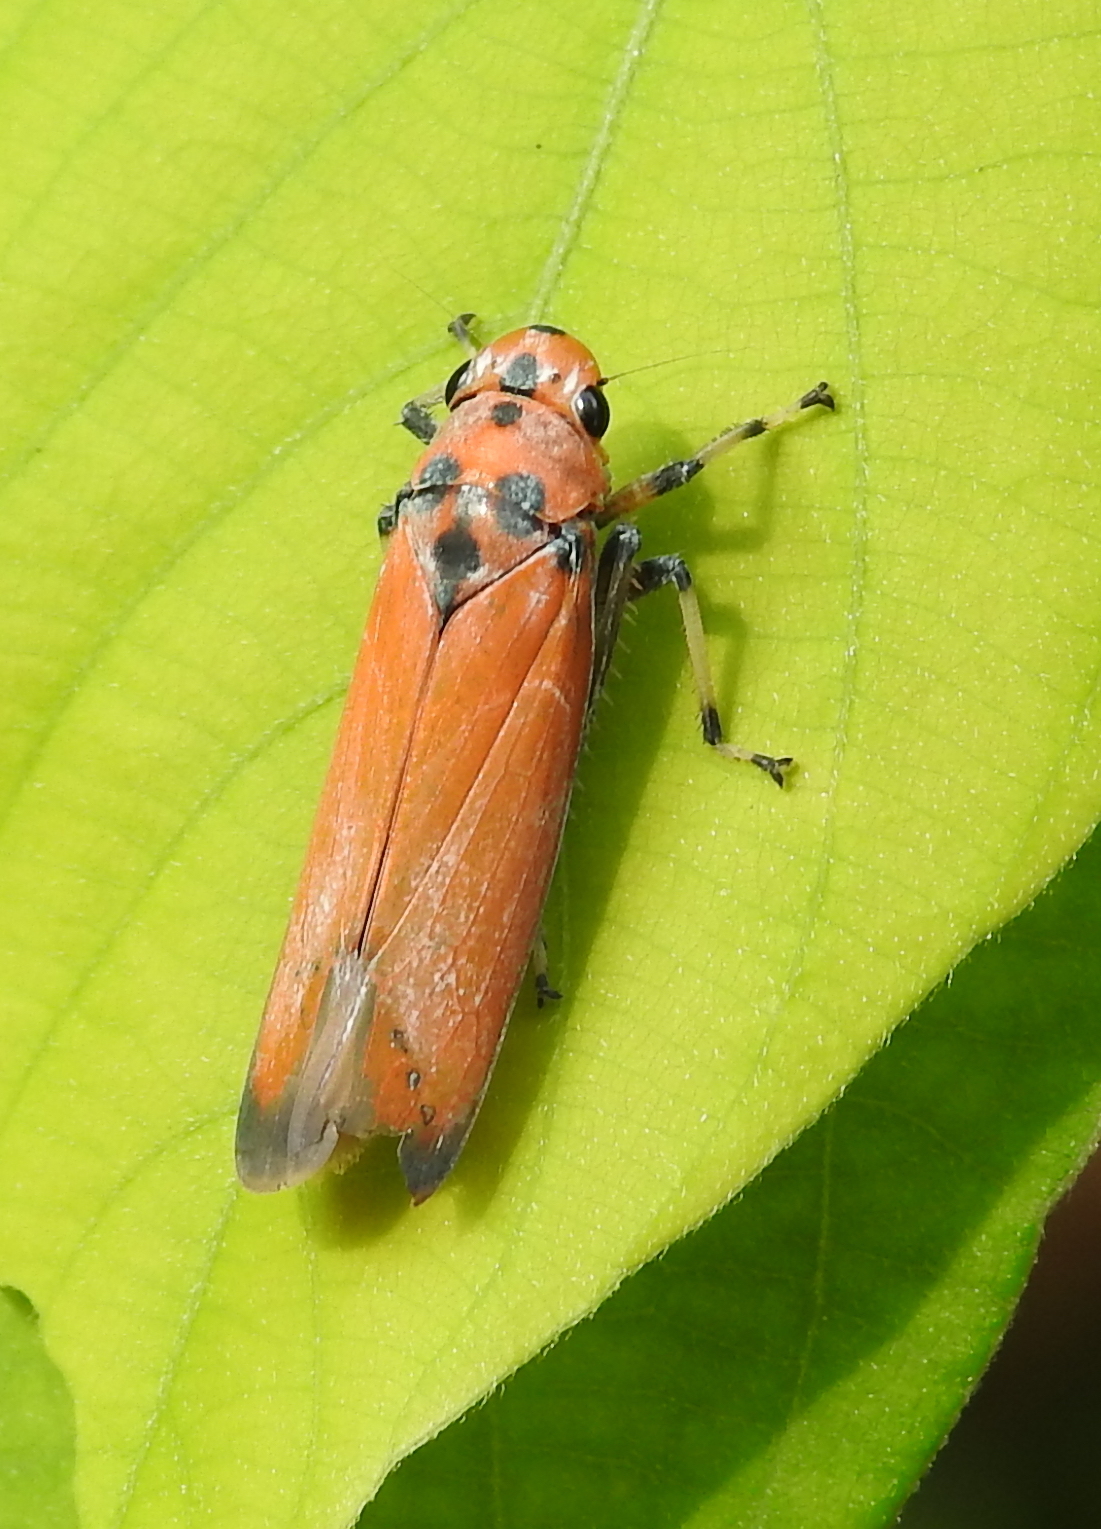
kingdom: Animalia
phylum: Arthropoda
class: Insecta
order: Hemiptera
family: Cicadellidae
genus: Bothrogonia
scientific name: Bothrogonia addita
